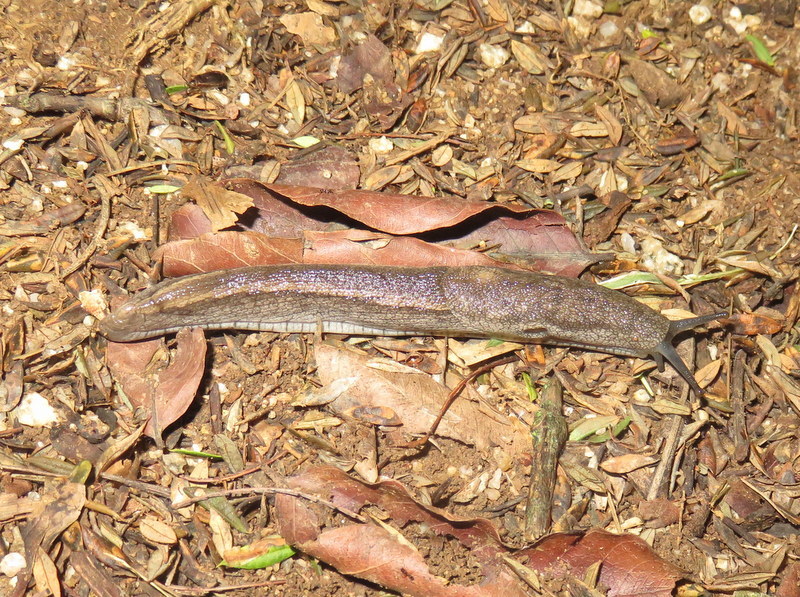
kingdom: Animalia
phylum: Mollusca
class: Gastropoda
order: Stylommatophora
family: Urocyclidae
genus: Urocyclus
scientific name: Urocyclus kirkii
